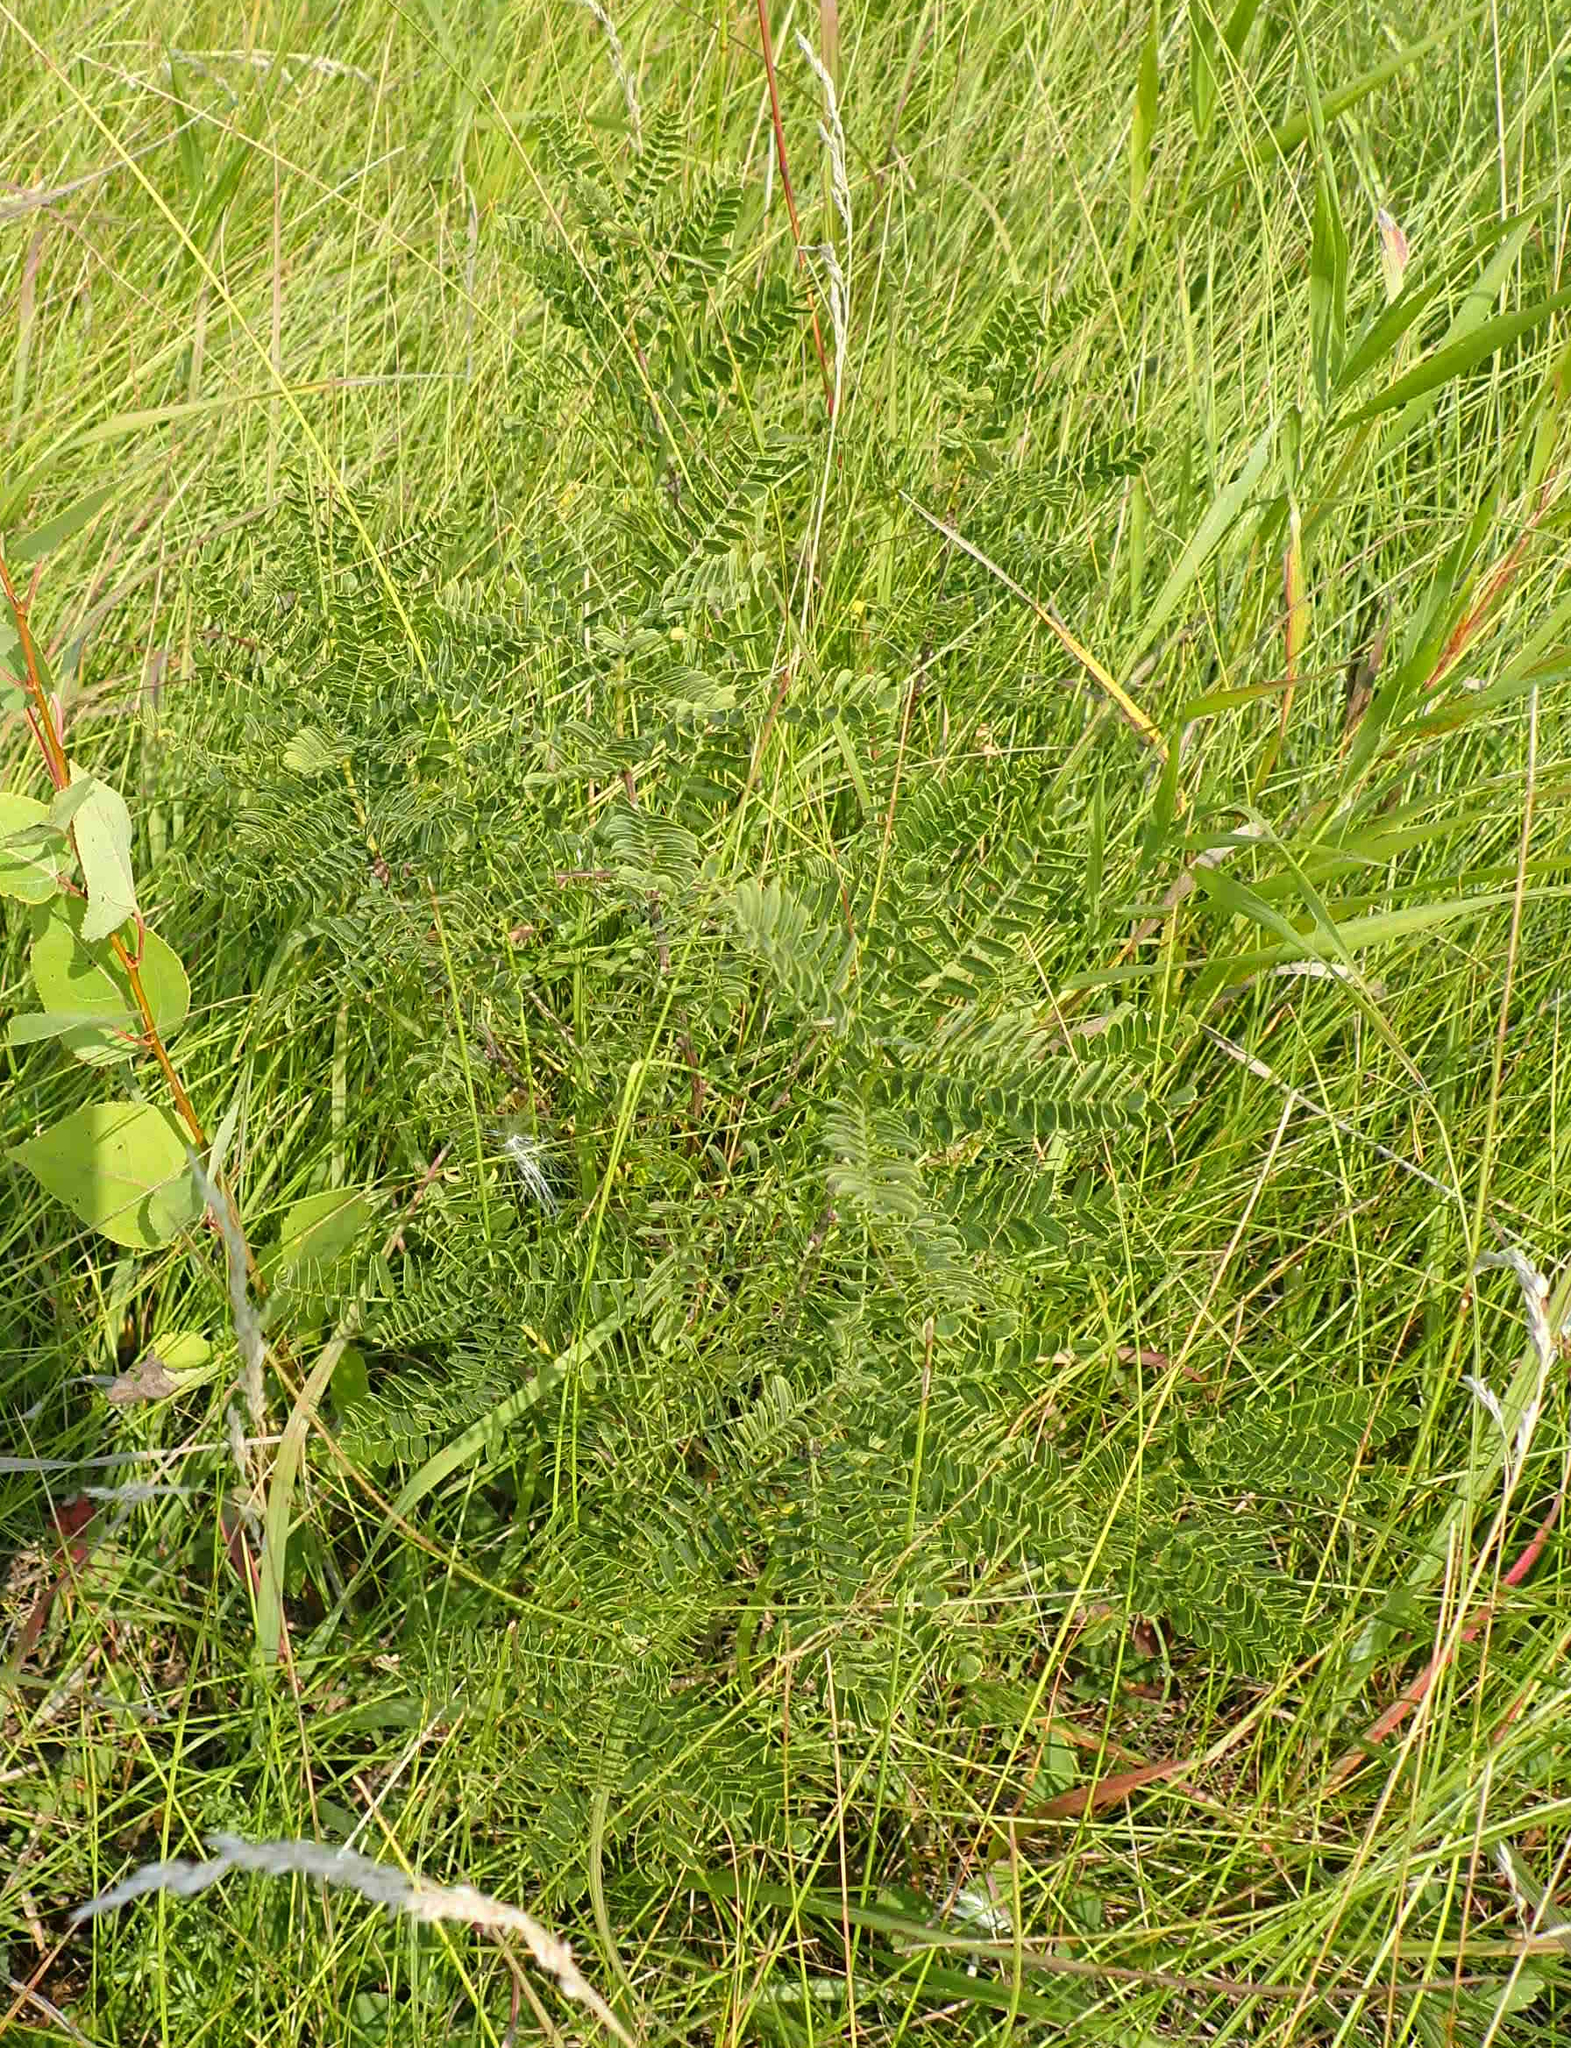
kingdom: Plantae
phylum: Tracheophyta
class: Magnoliopsida
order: Fabales
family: Fabaceae
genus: Amorpha
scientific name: Amorpha nana
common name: Fragrant false indigo
